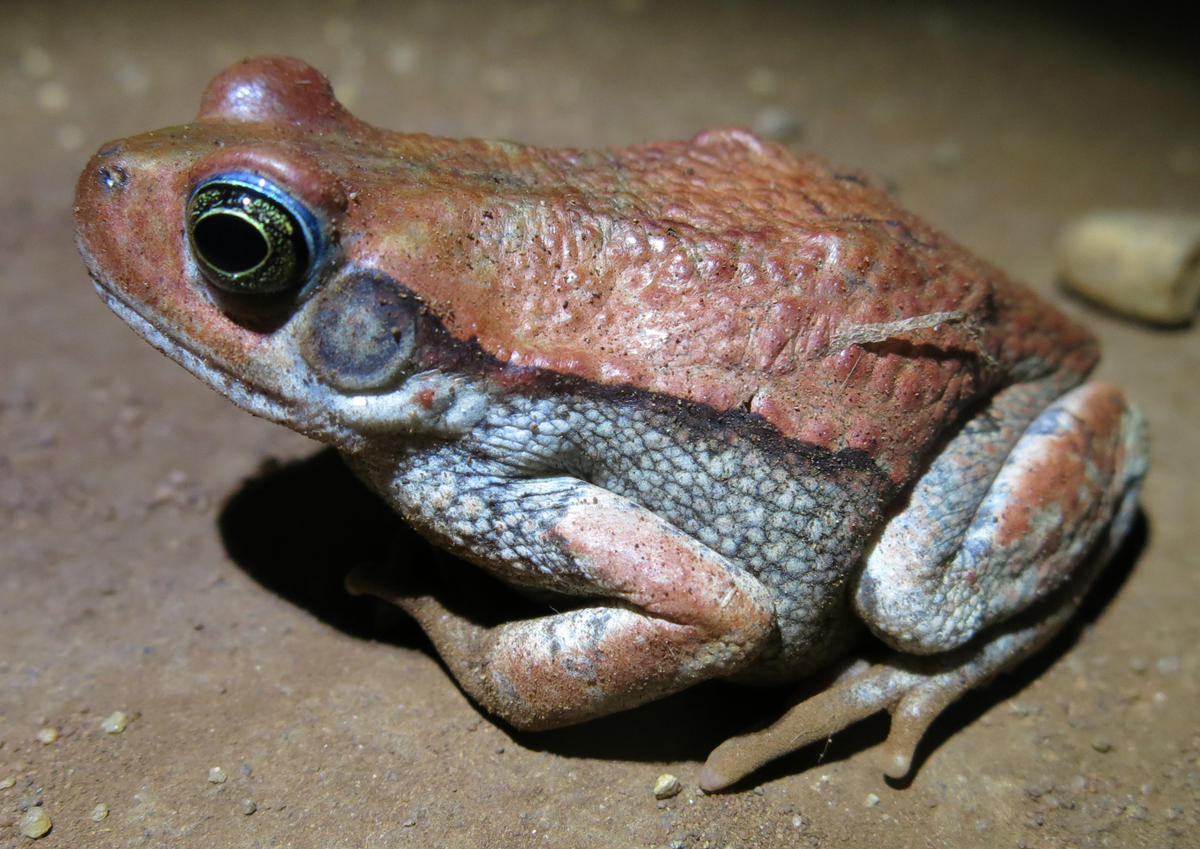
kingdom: Animalia
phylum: Chordata
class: Amphibia
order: Anura
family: Bufonidae
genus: Schismaderma
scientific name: Schismaderma carens
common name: African split-skin toad
